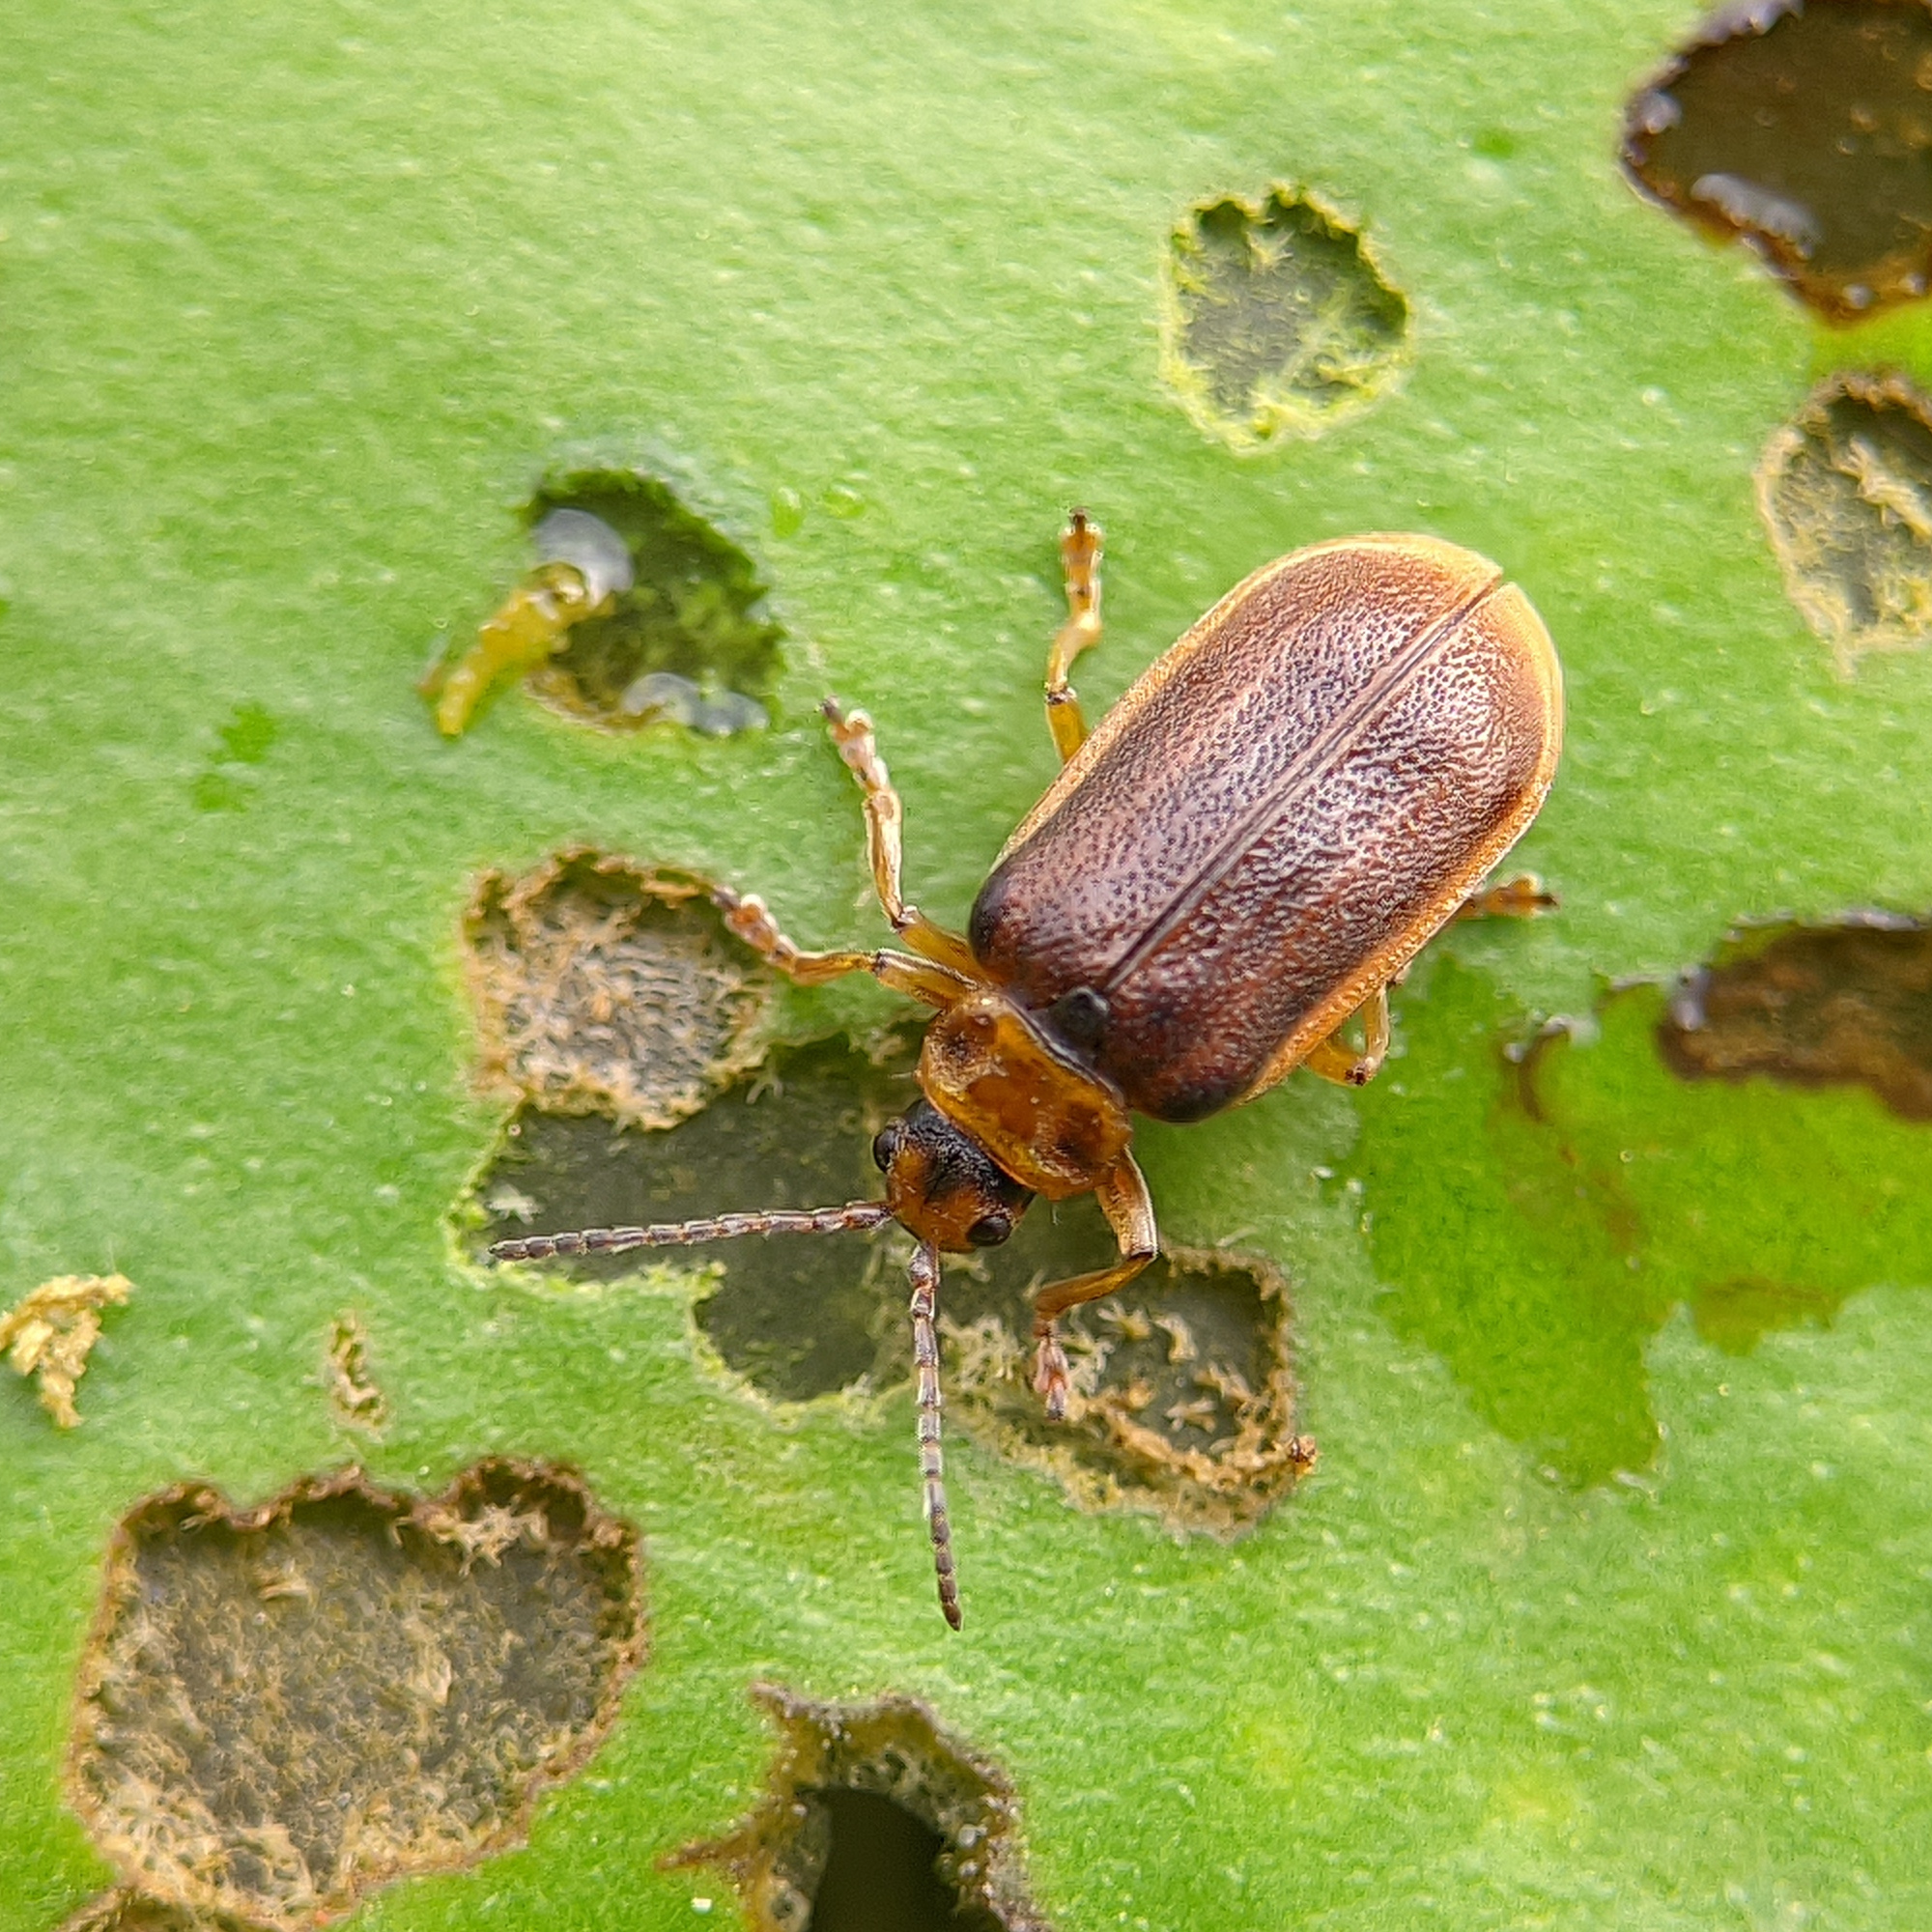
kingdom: Animalia
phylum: Arthropoda
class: Insecta
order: Coleoptera
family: Chrysomelidae
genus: Galerucella
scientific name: Galerucella nymphaeae
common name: Leaf beetle
